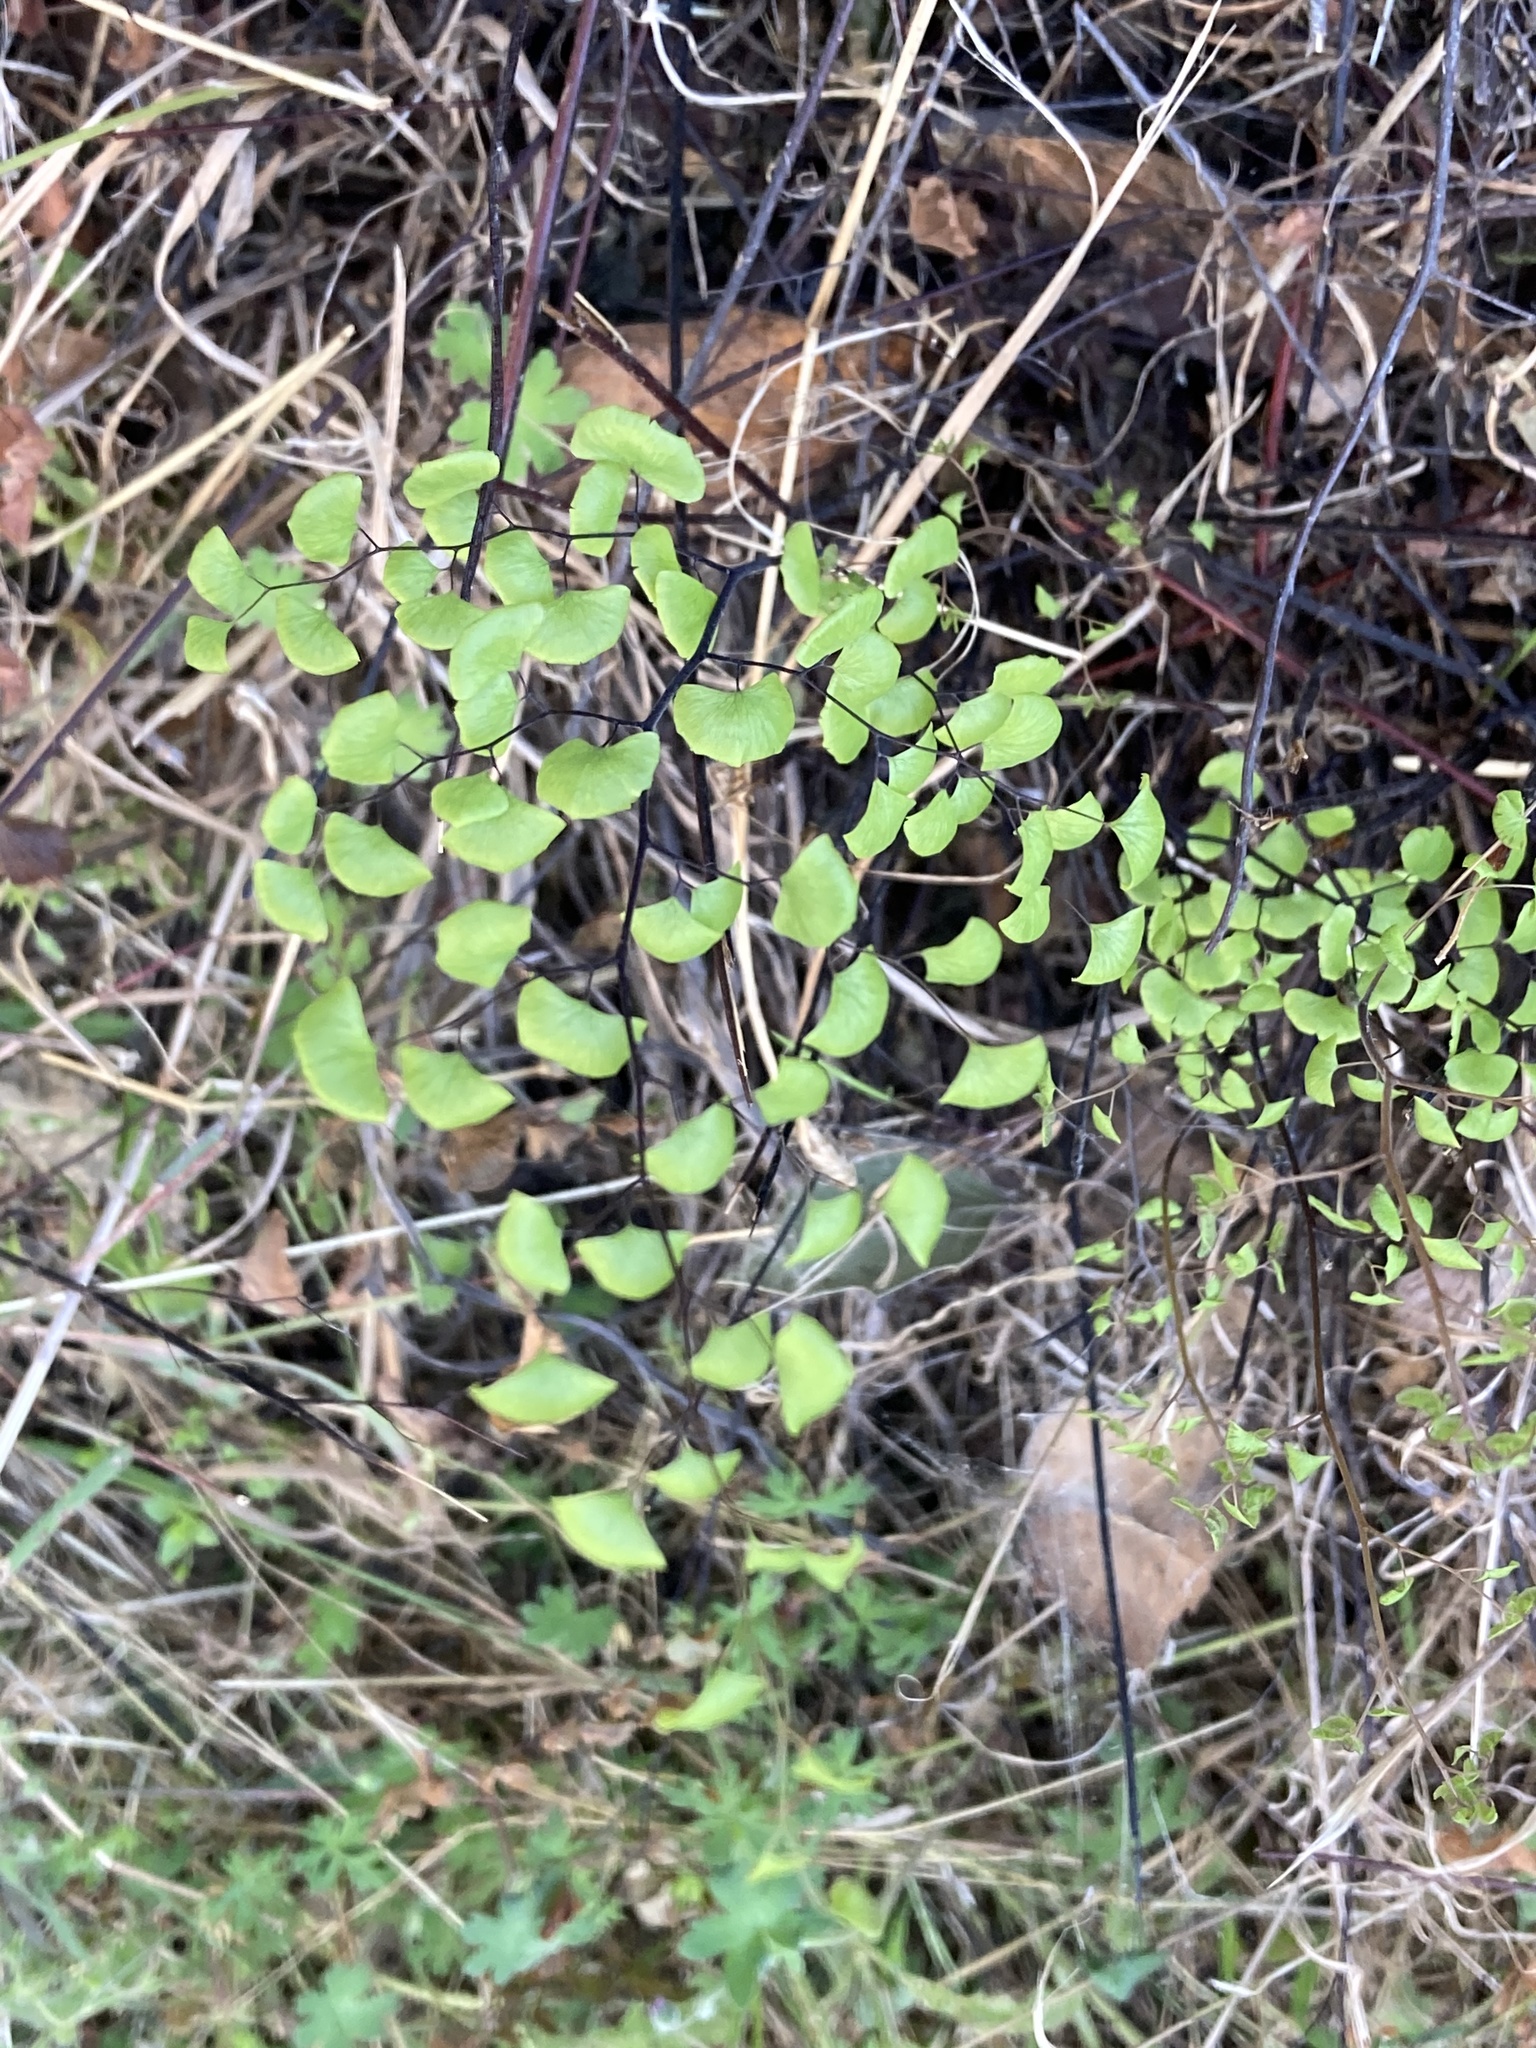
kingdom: Plantae
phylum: Tracheophyta
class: Polypodiopsida
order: Polypodiales
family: Pteridaceae
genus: Adiantum
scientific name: Adiantum jordanii
